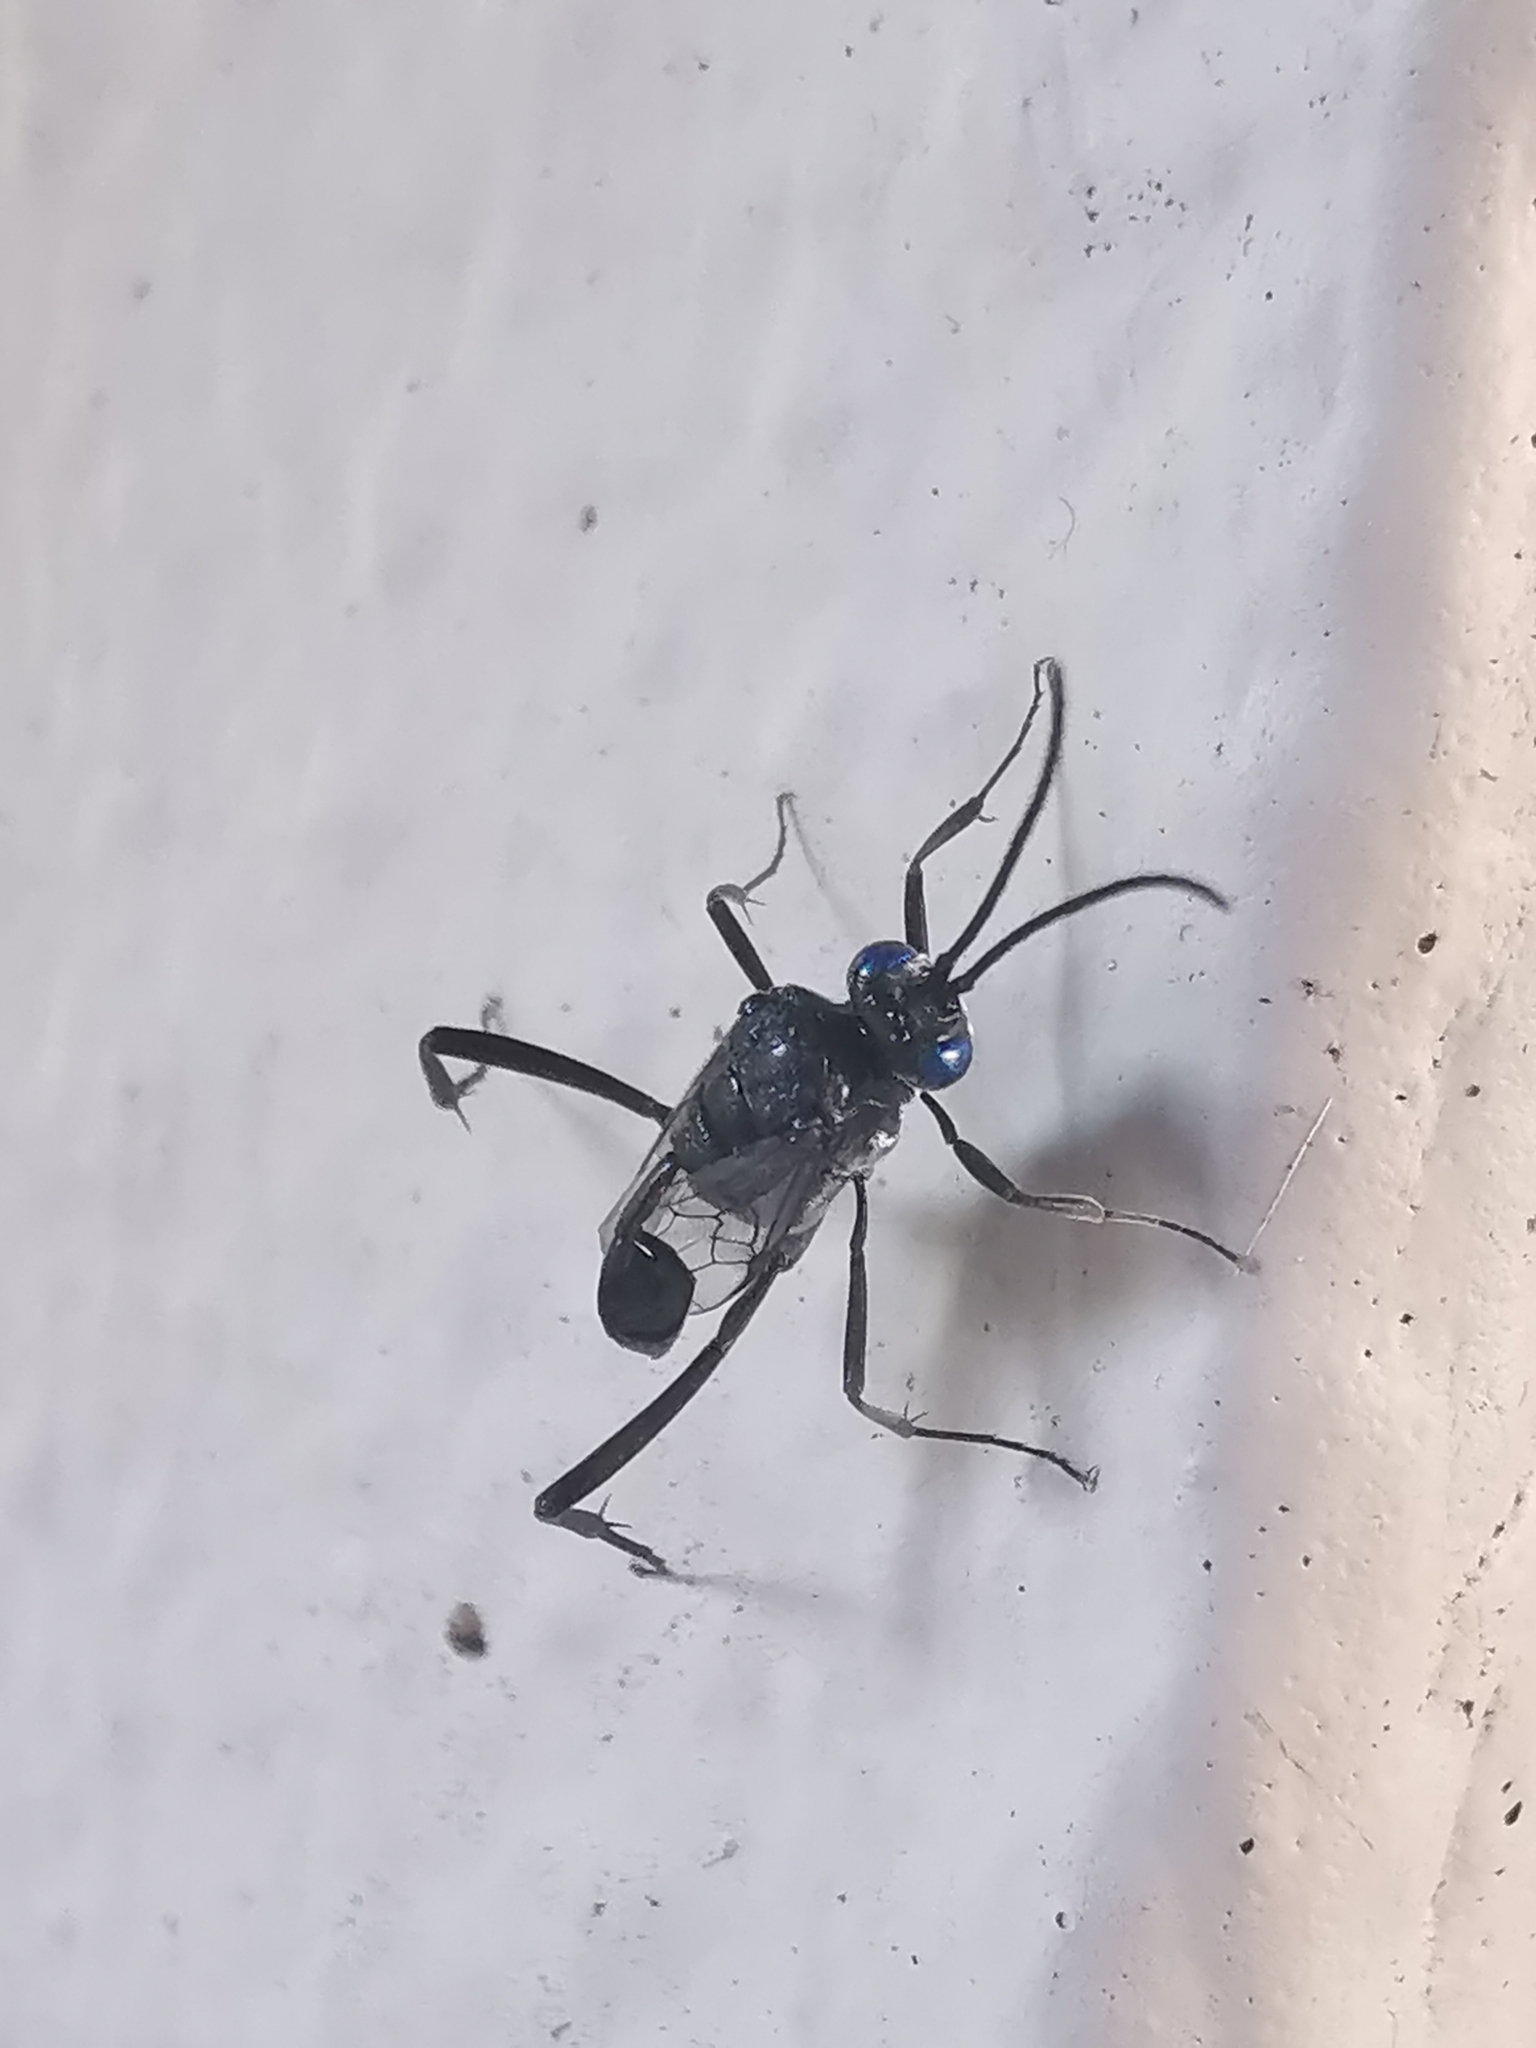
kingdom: Animalia
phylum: Arthropoda
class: Insecta
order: Hymenoptera
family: Evaniidae
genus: Evania
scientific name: Evania appendigaster
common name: Ensign wasp
